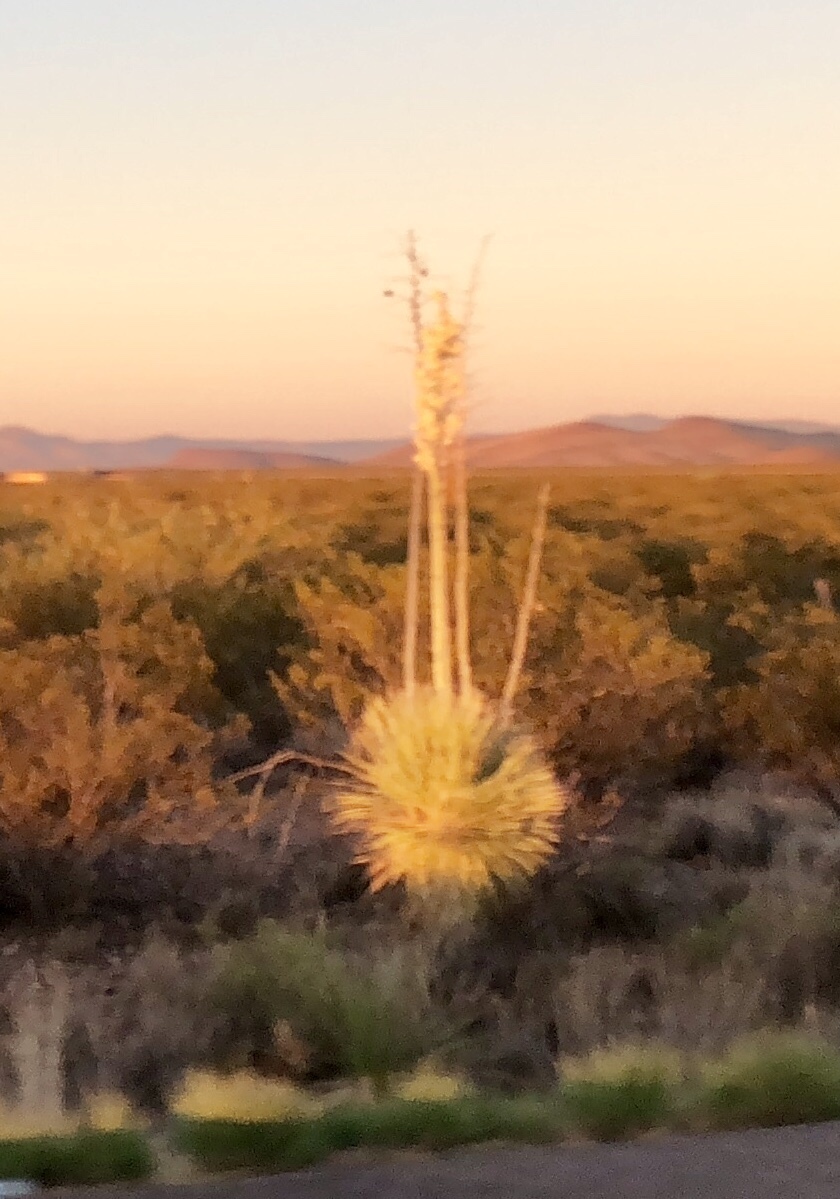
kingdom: Plantae
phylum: Tracheophyta
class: Liliopsida
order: Asparagales
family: Asparagaceae
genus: Yucca
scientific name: Yucca elata
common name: Palmella
